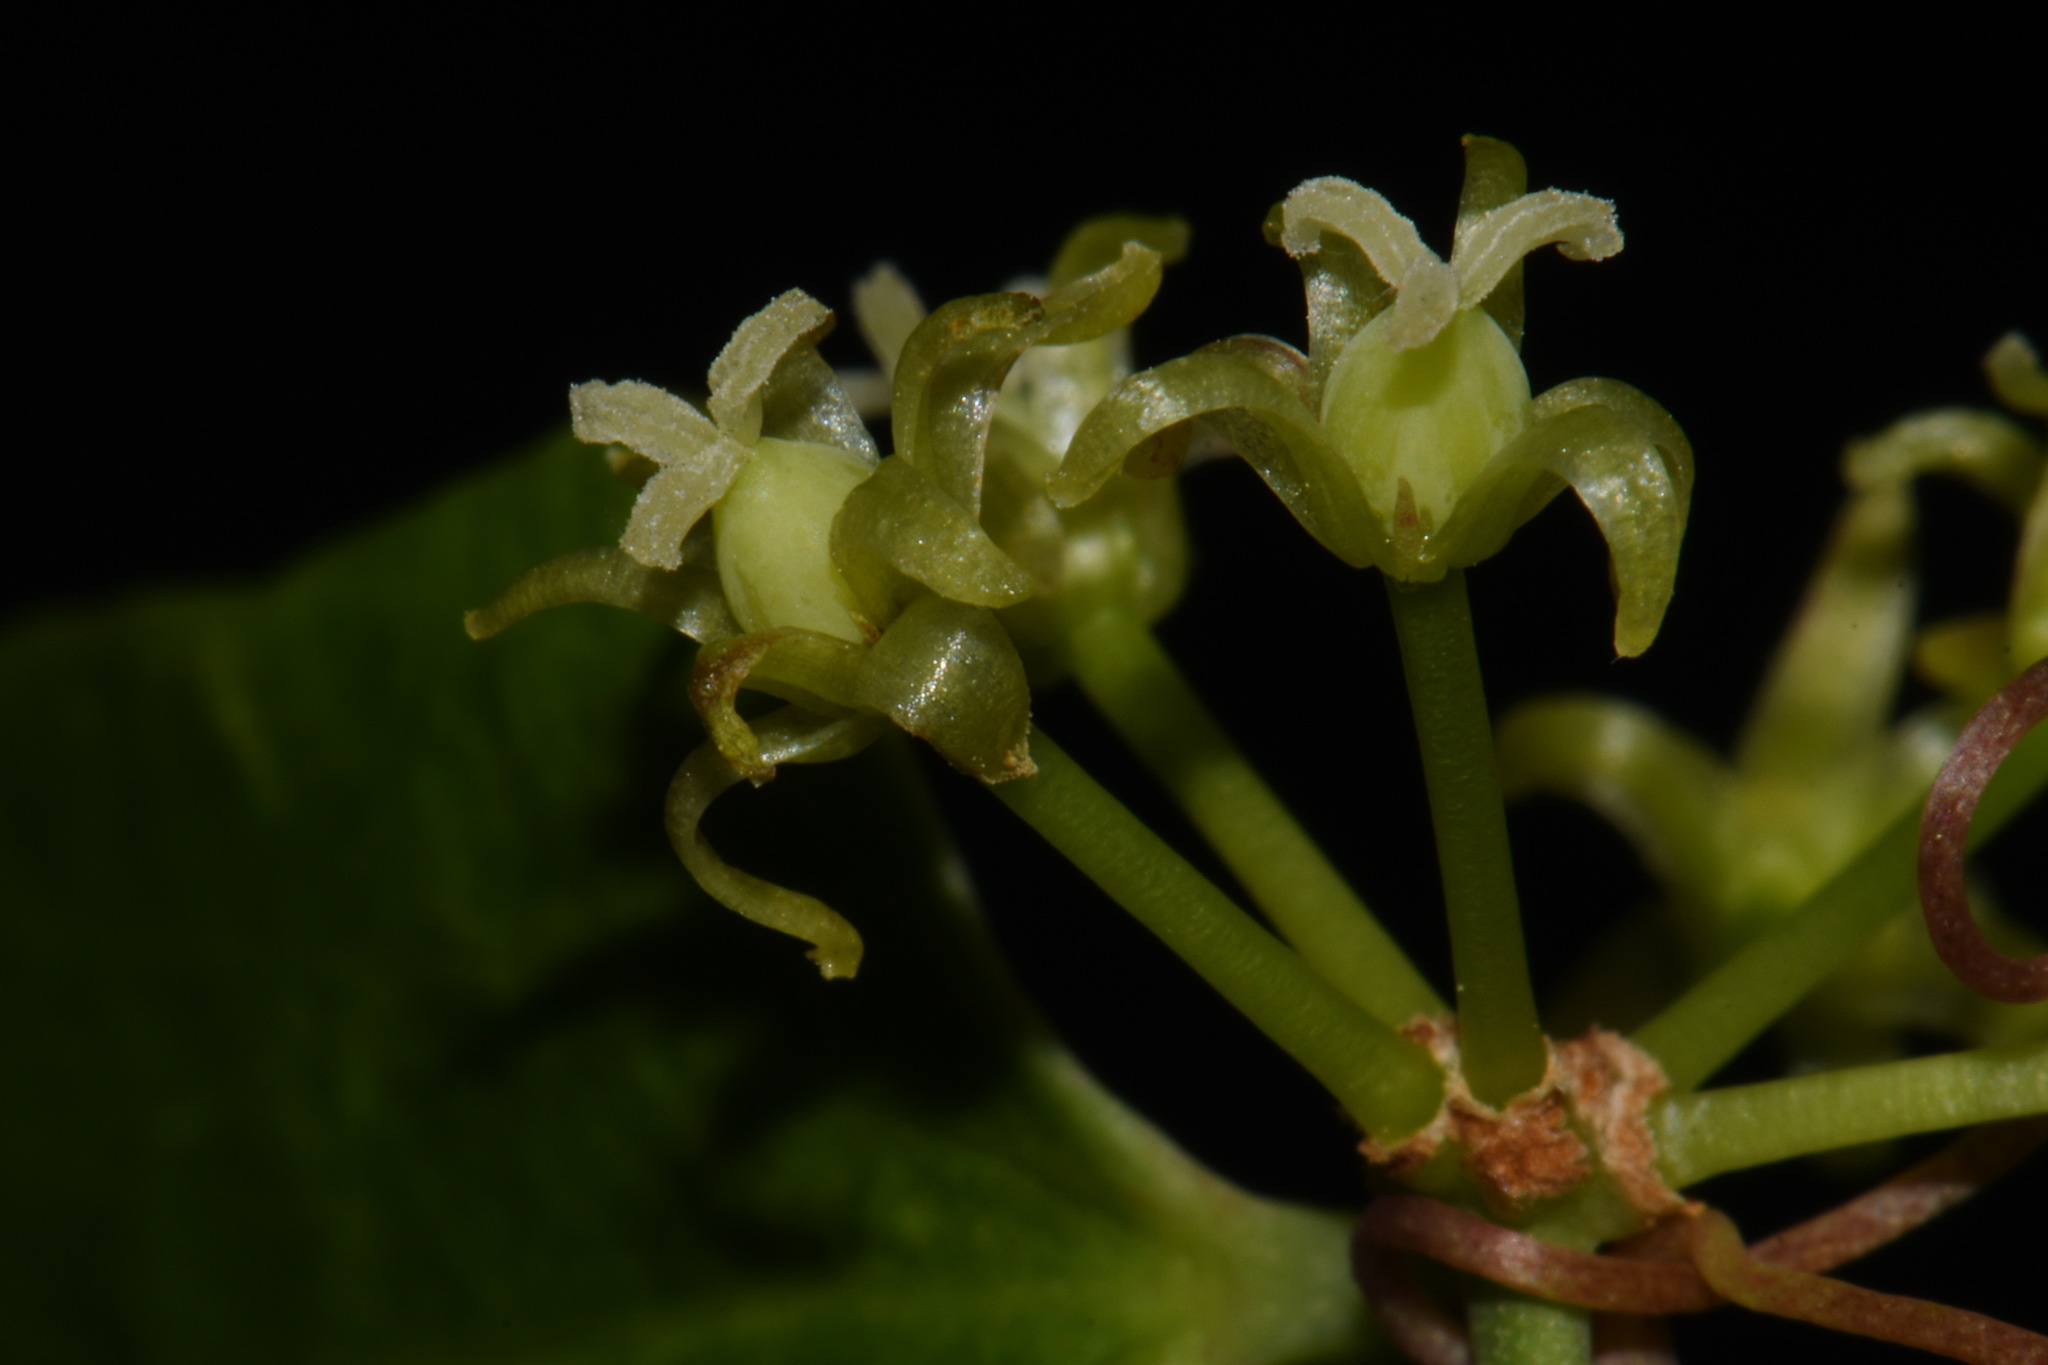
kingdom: Plantae
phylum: Tracheophyta
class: Liliopsida
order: Liliales
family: Smilacaceae
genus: Smilax
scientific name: Smilax auriculata
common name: Wild bamboo
